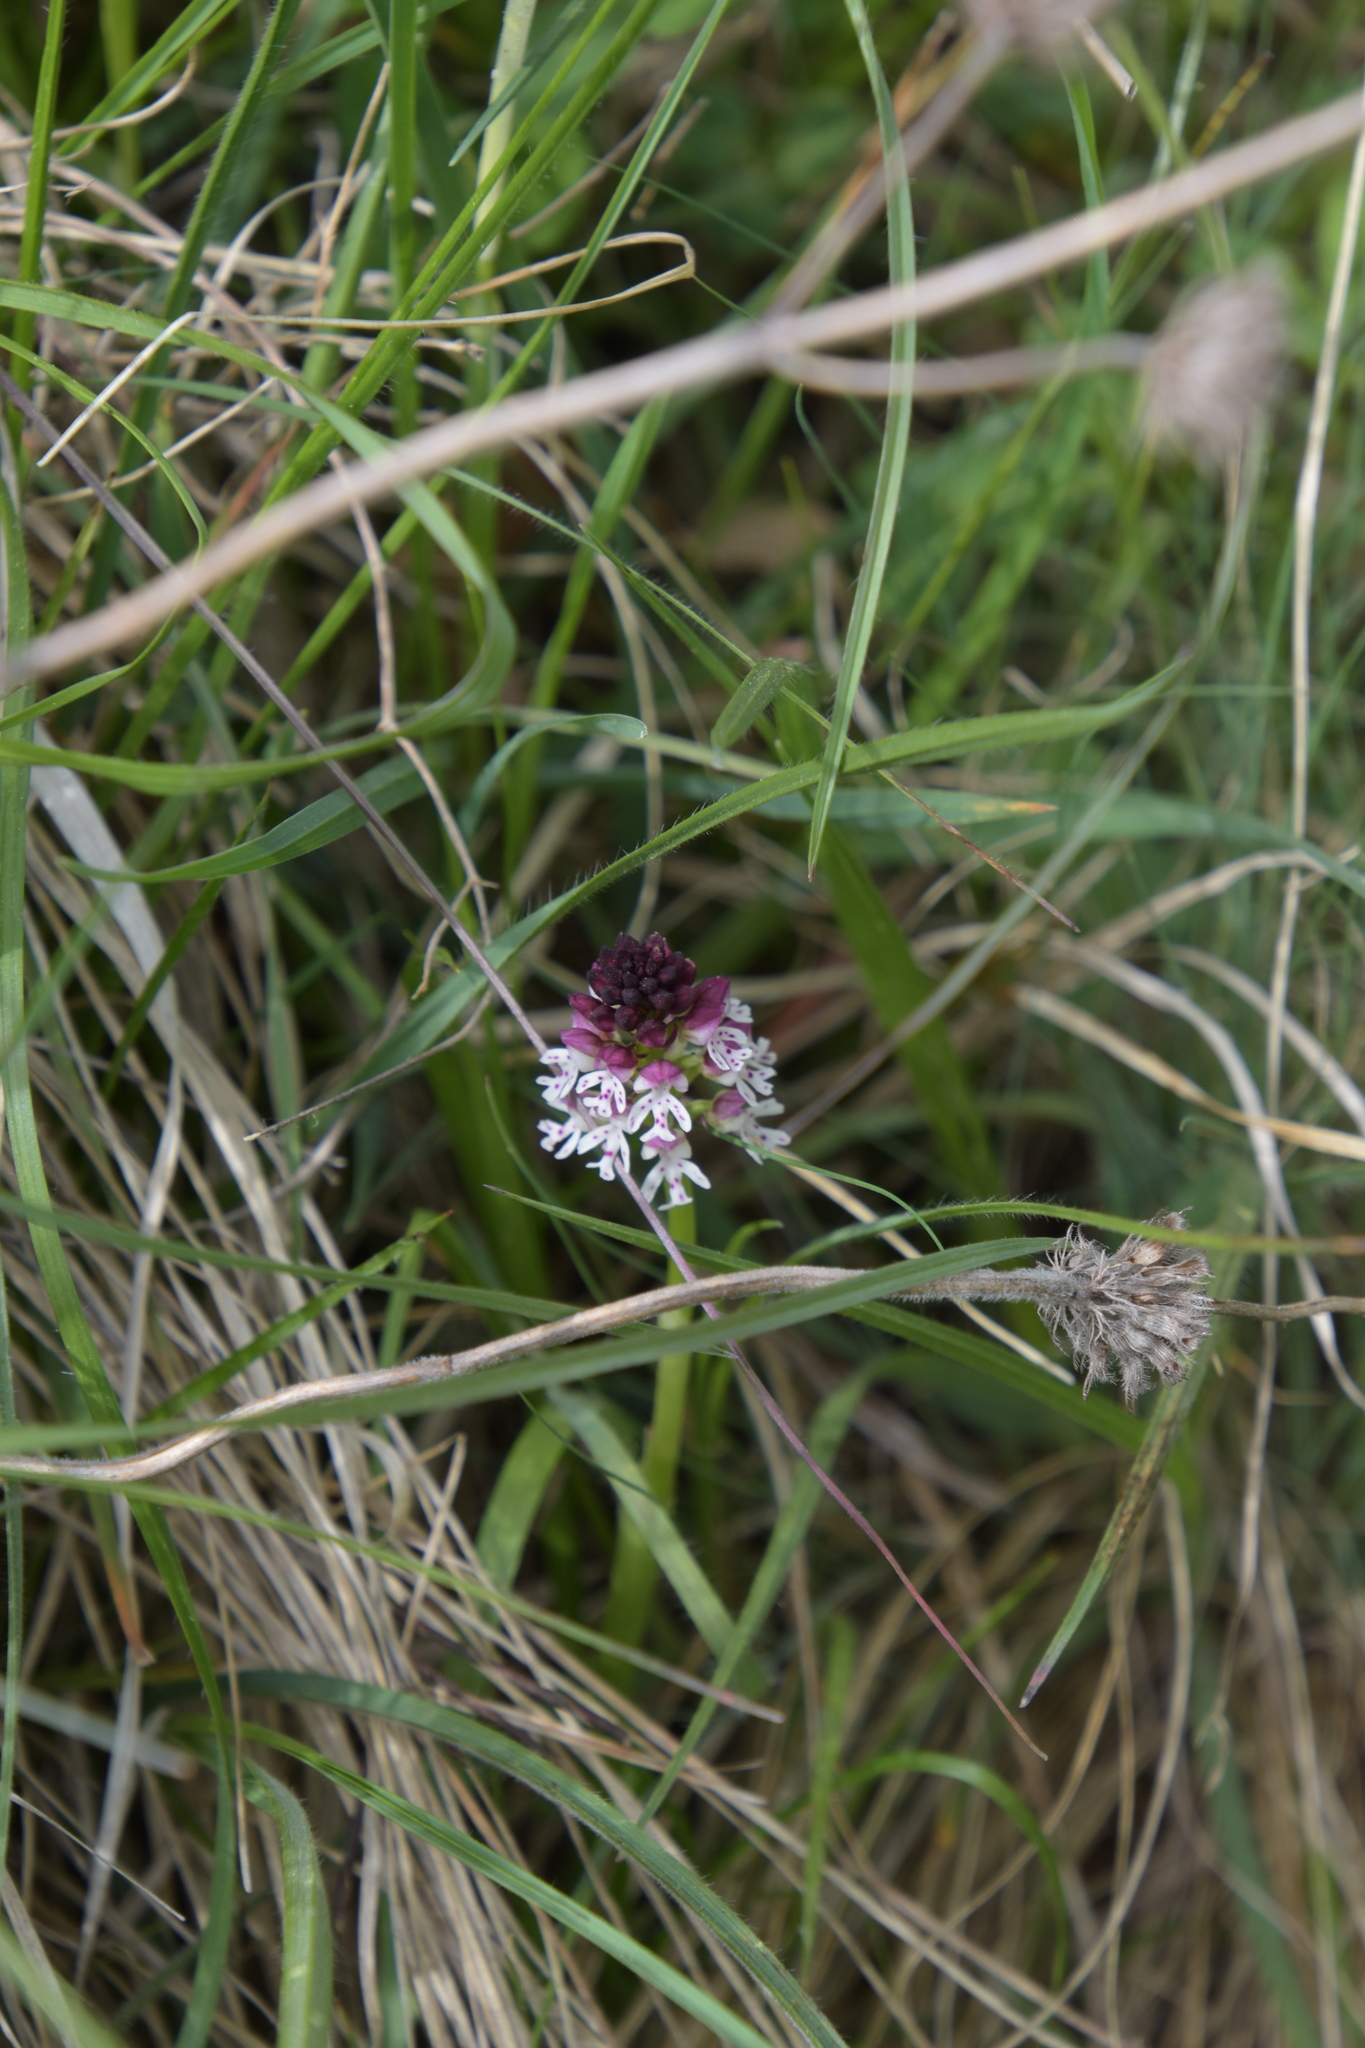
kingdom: Plantae
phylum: Tracheophyta
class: Liliopsida
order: Asparagales
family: Orchidaceae
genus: Neotinea
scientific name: Neotinea ustulata
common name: Burnt orchid
